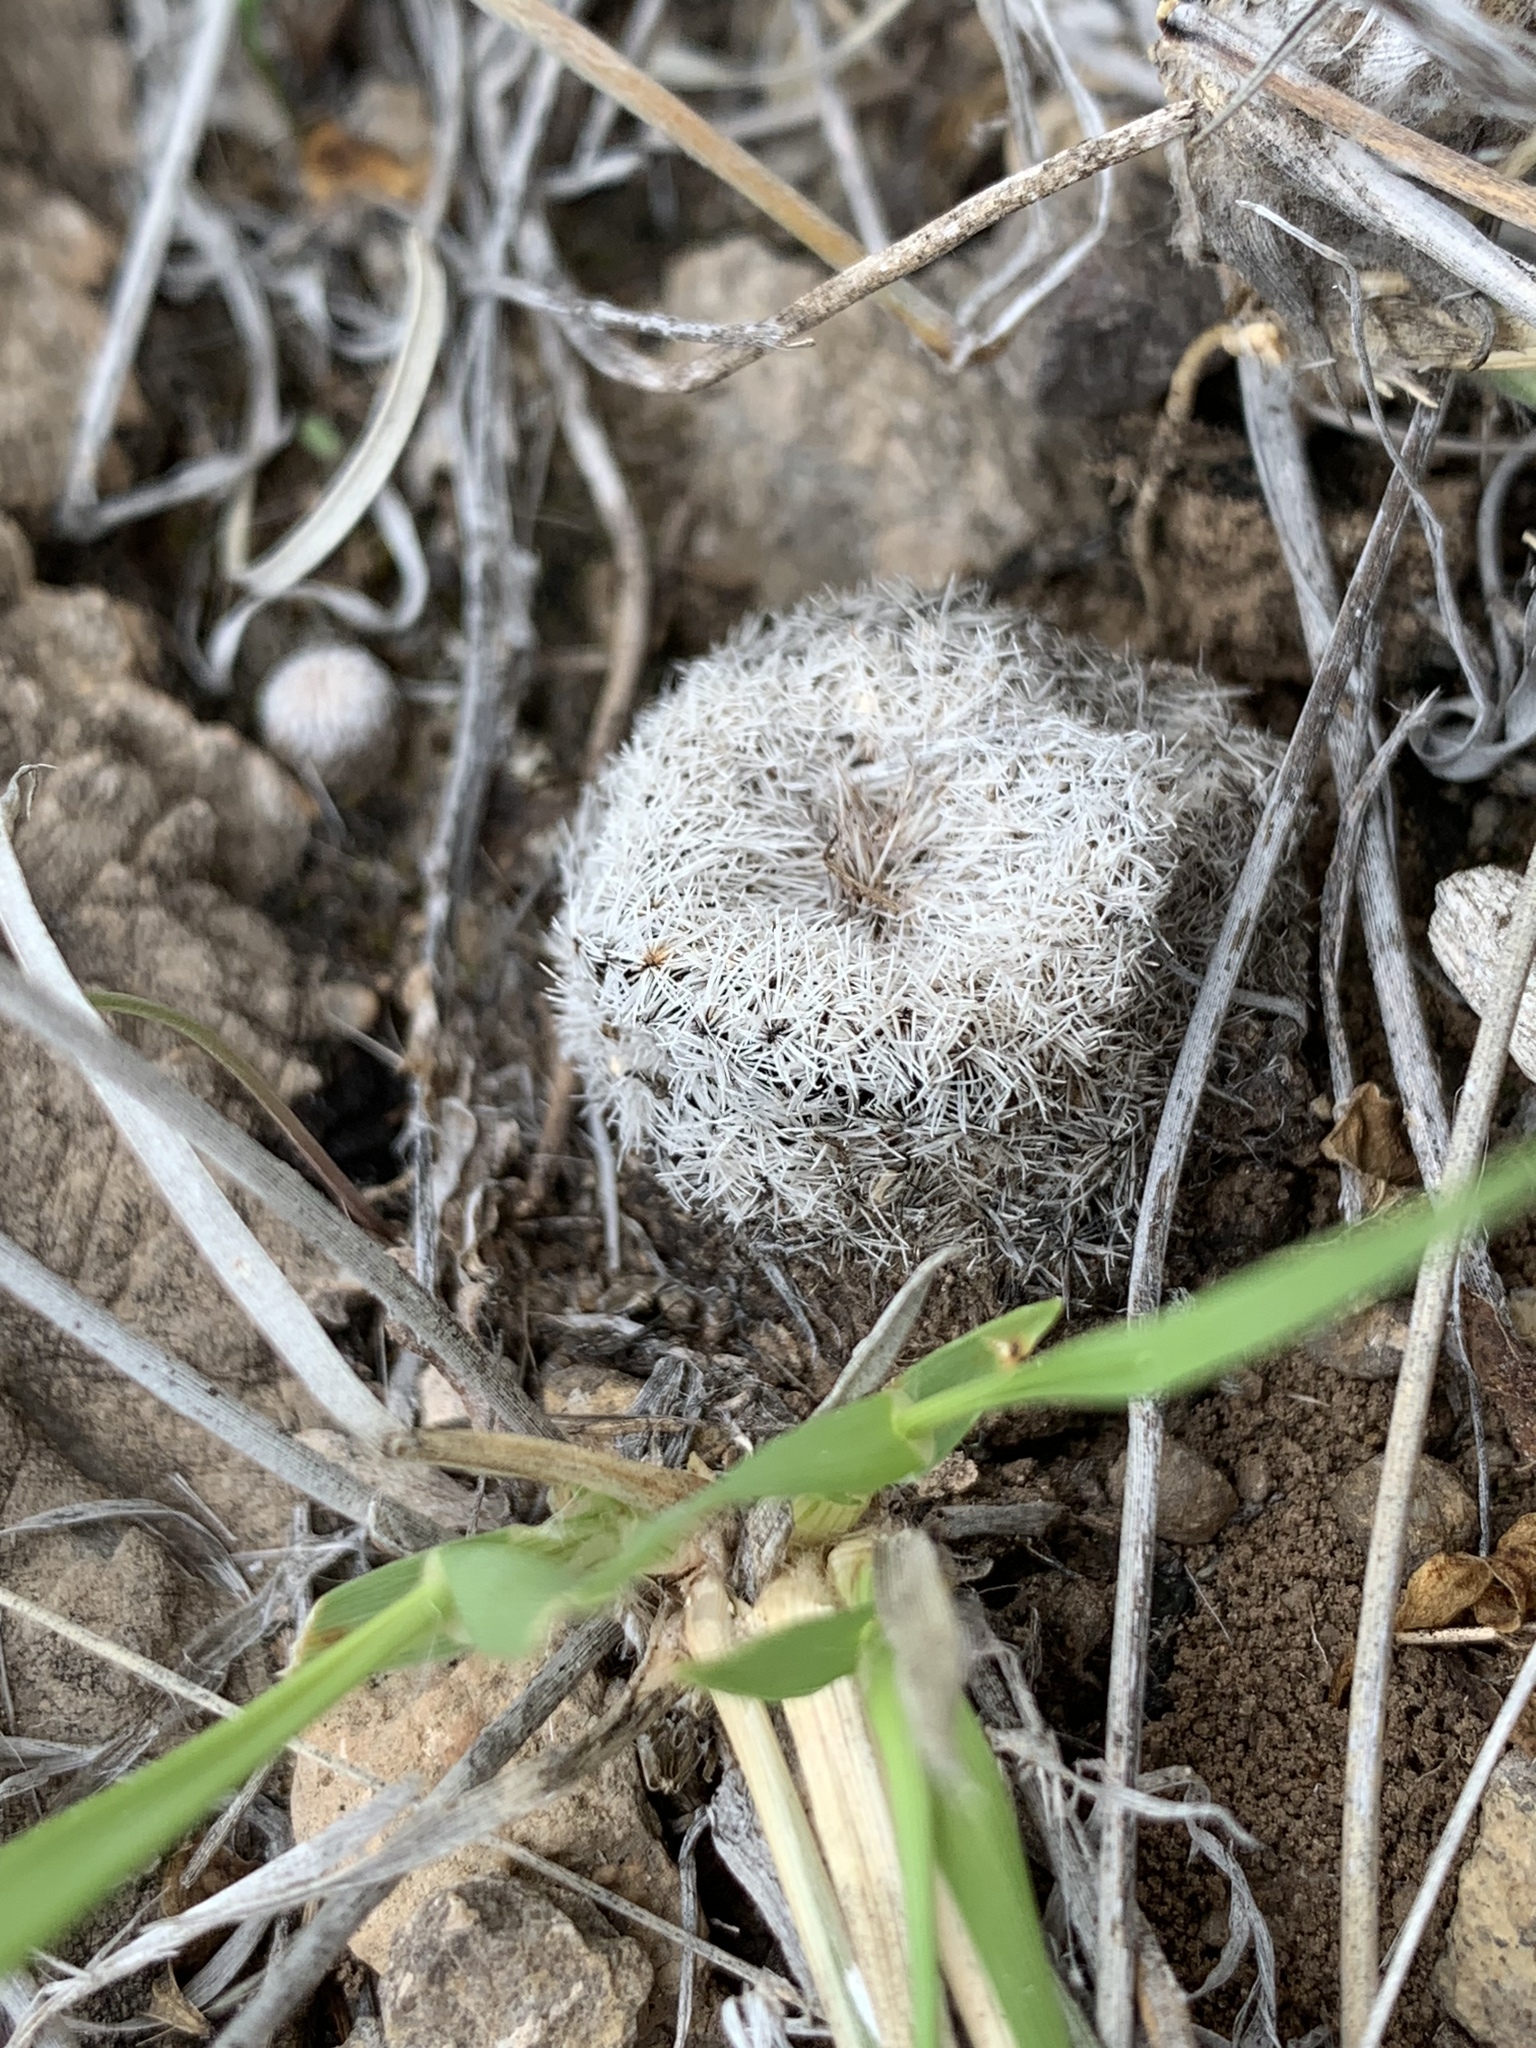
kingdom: Plantae
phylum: Tracheophyta
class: Magnoliopsida
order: Caryophyllales
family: Cactaceae
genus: Epithelantha
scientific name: Epithelantha micromeris
